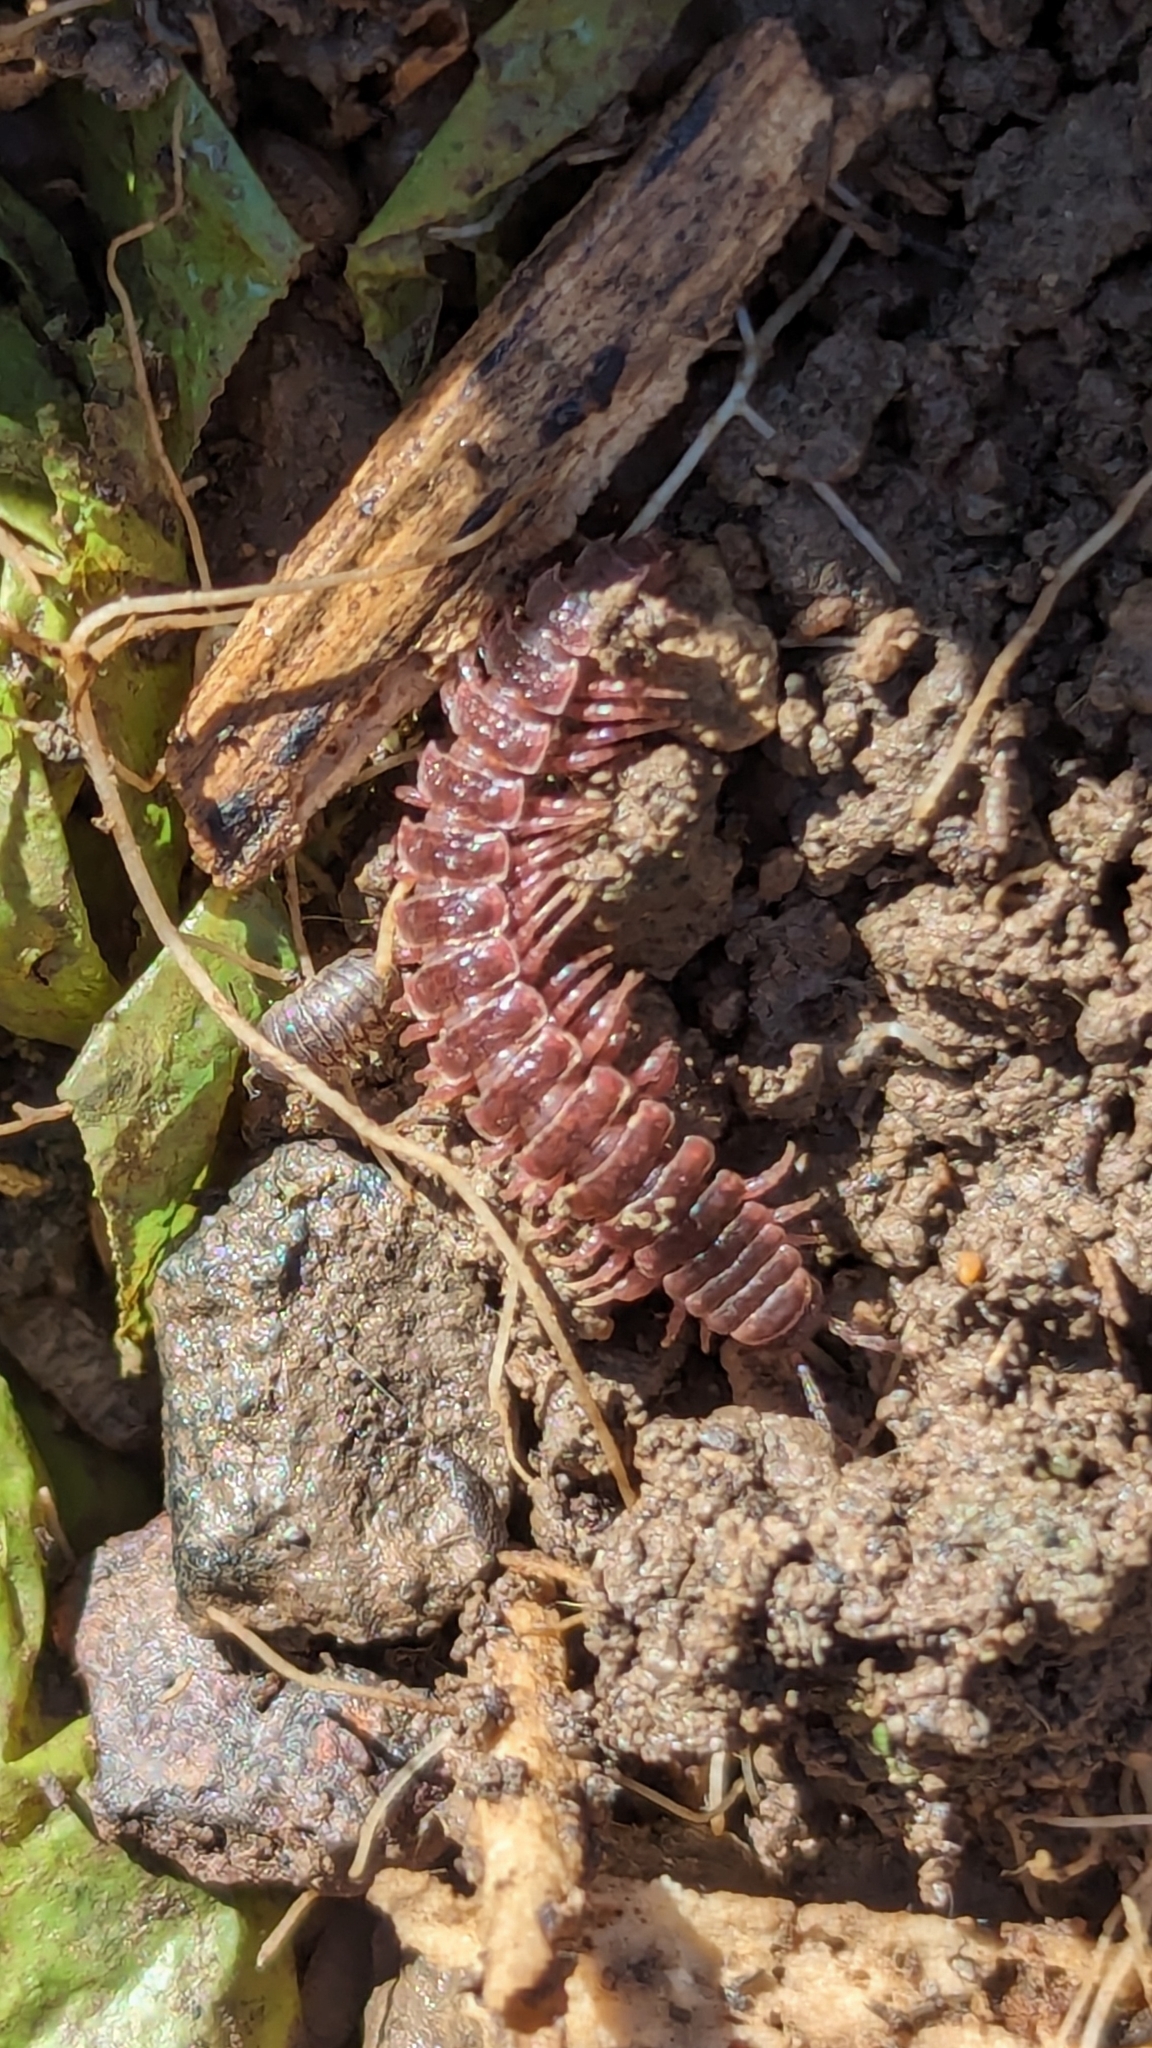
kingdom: Animalia
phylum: Arthropoda
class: Diplopoda
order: Polydesmida
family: Polydesmidae
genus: Pseudopolydesmus
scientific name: Pseudopolydesmus serratus
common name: Common pink flat-back millipede
